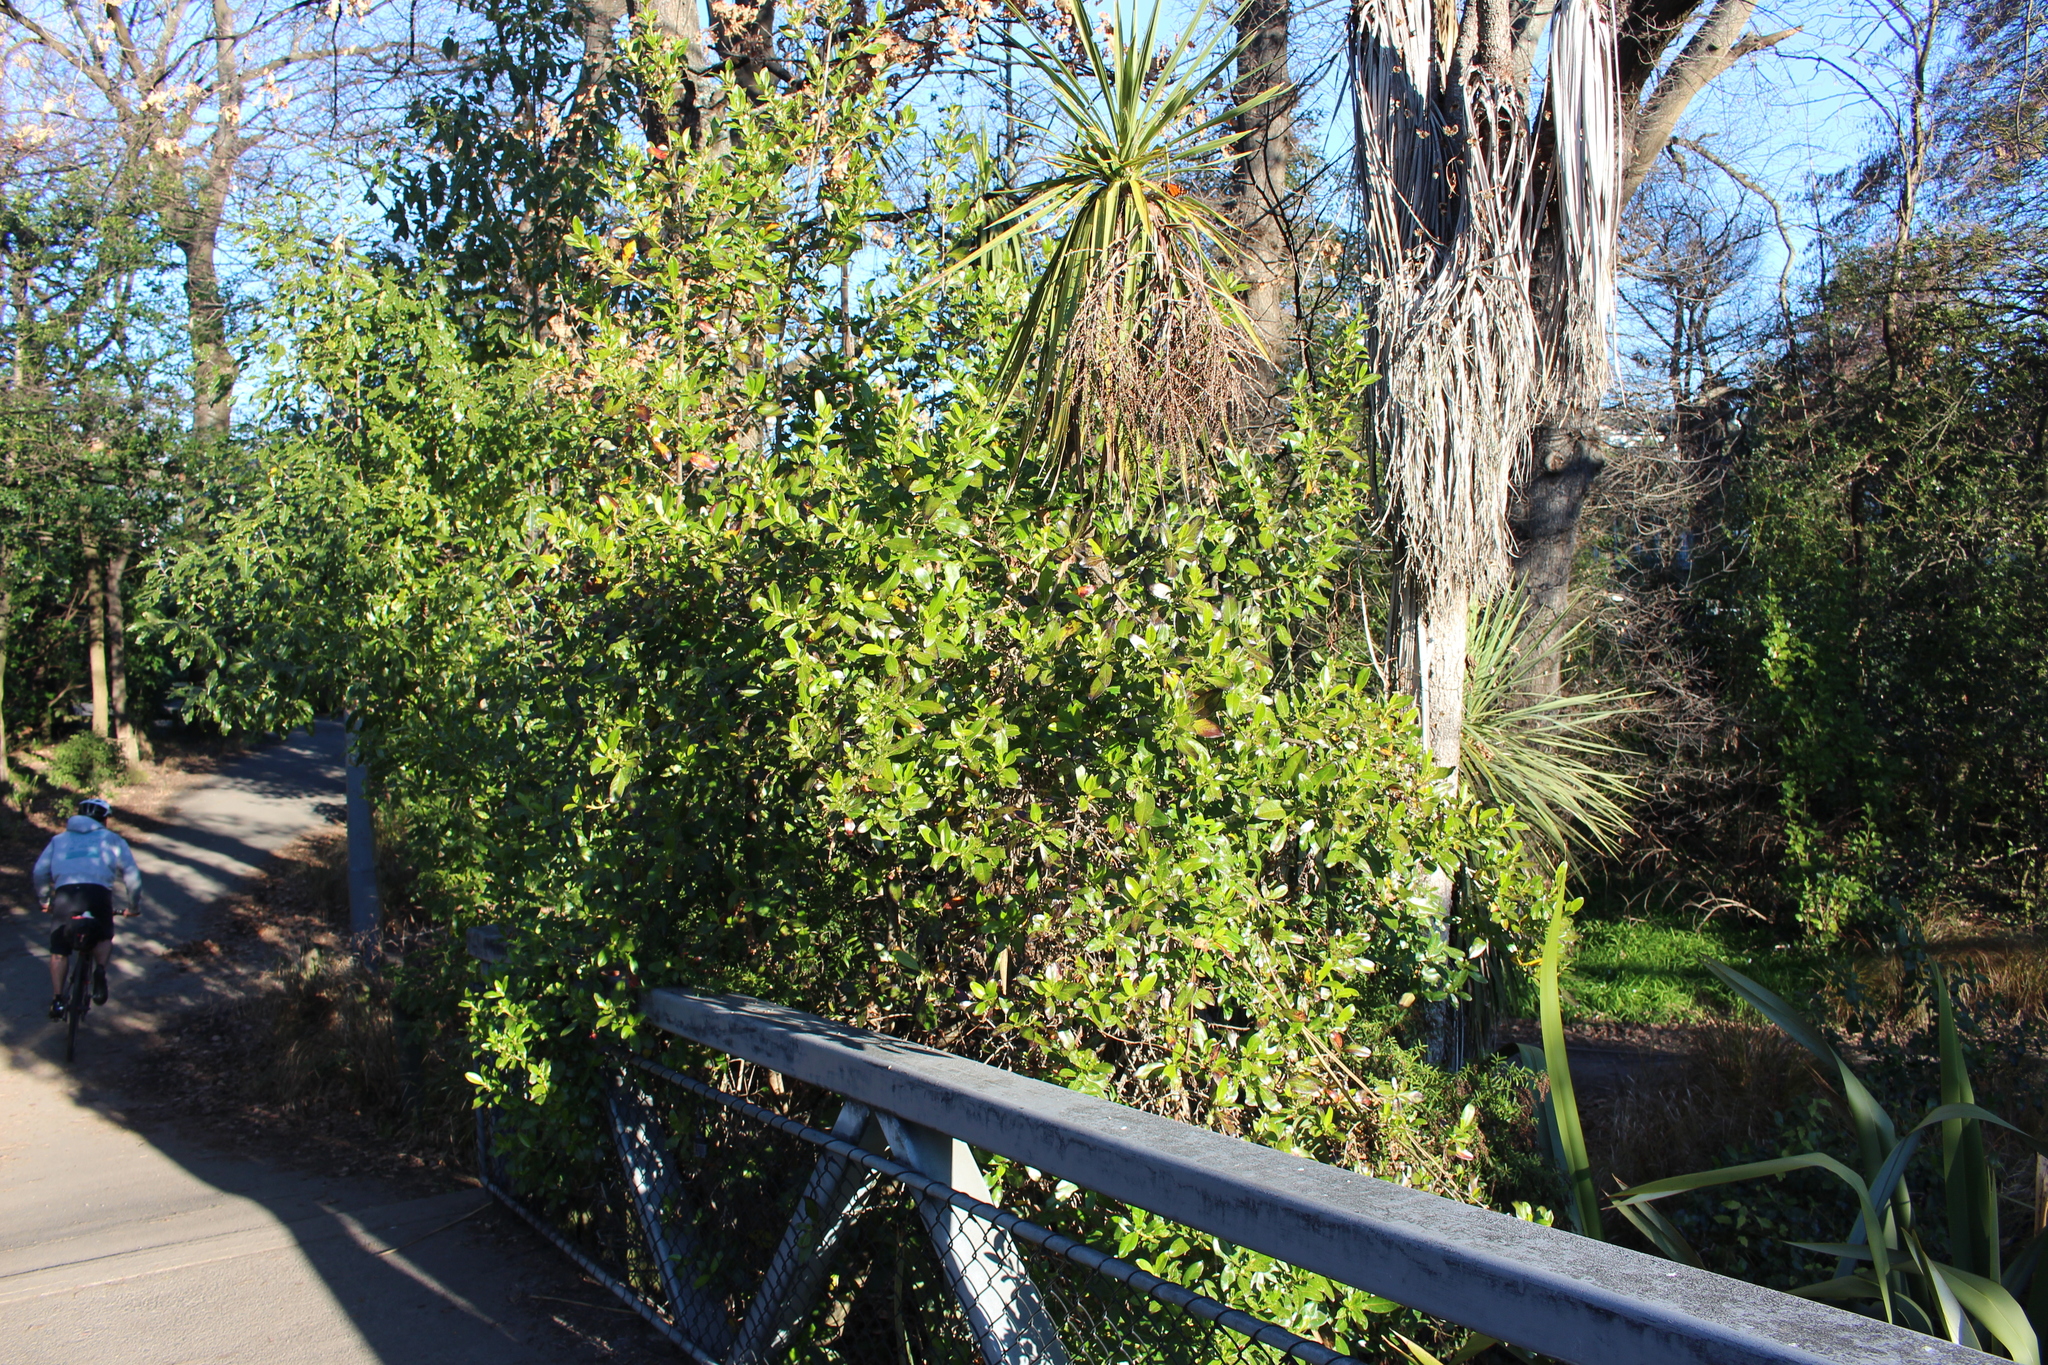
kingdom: Plantae
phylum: Tracheophyta
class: Magnoliopsida
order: Gentianales
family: Rubiaceae
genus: Coprosma
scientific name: Coprosma robusta
